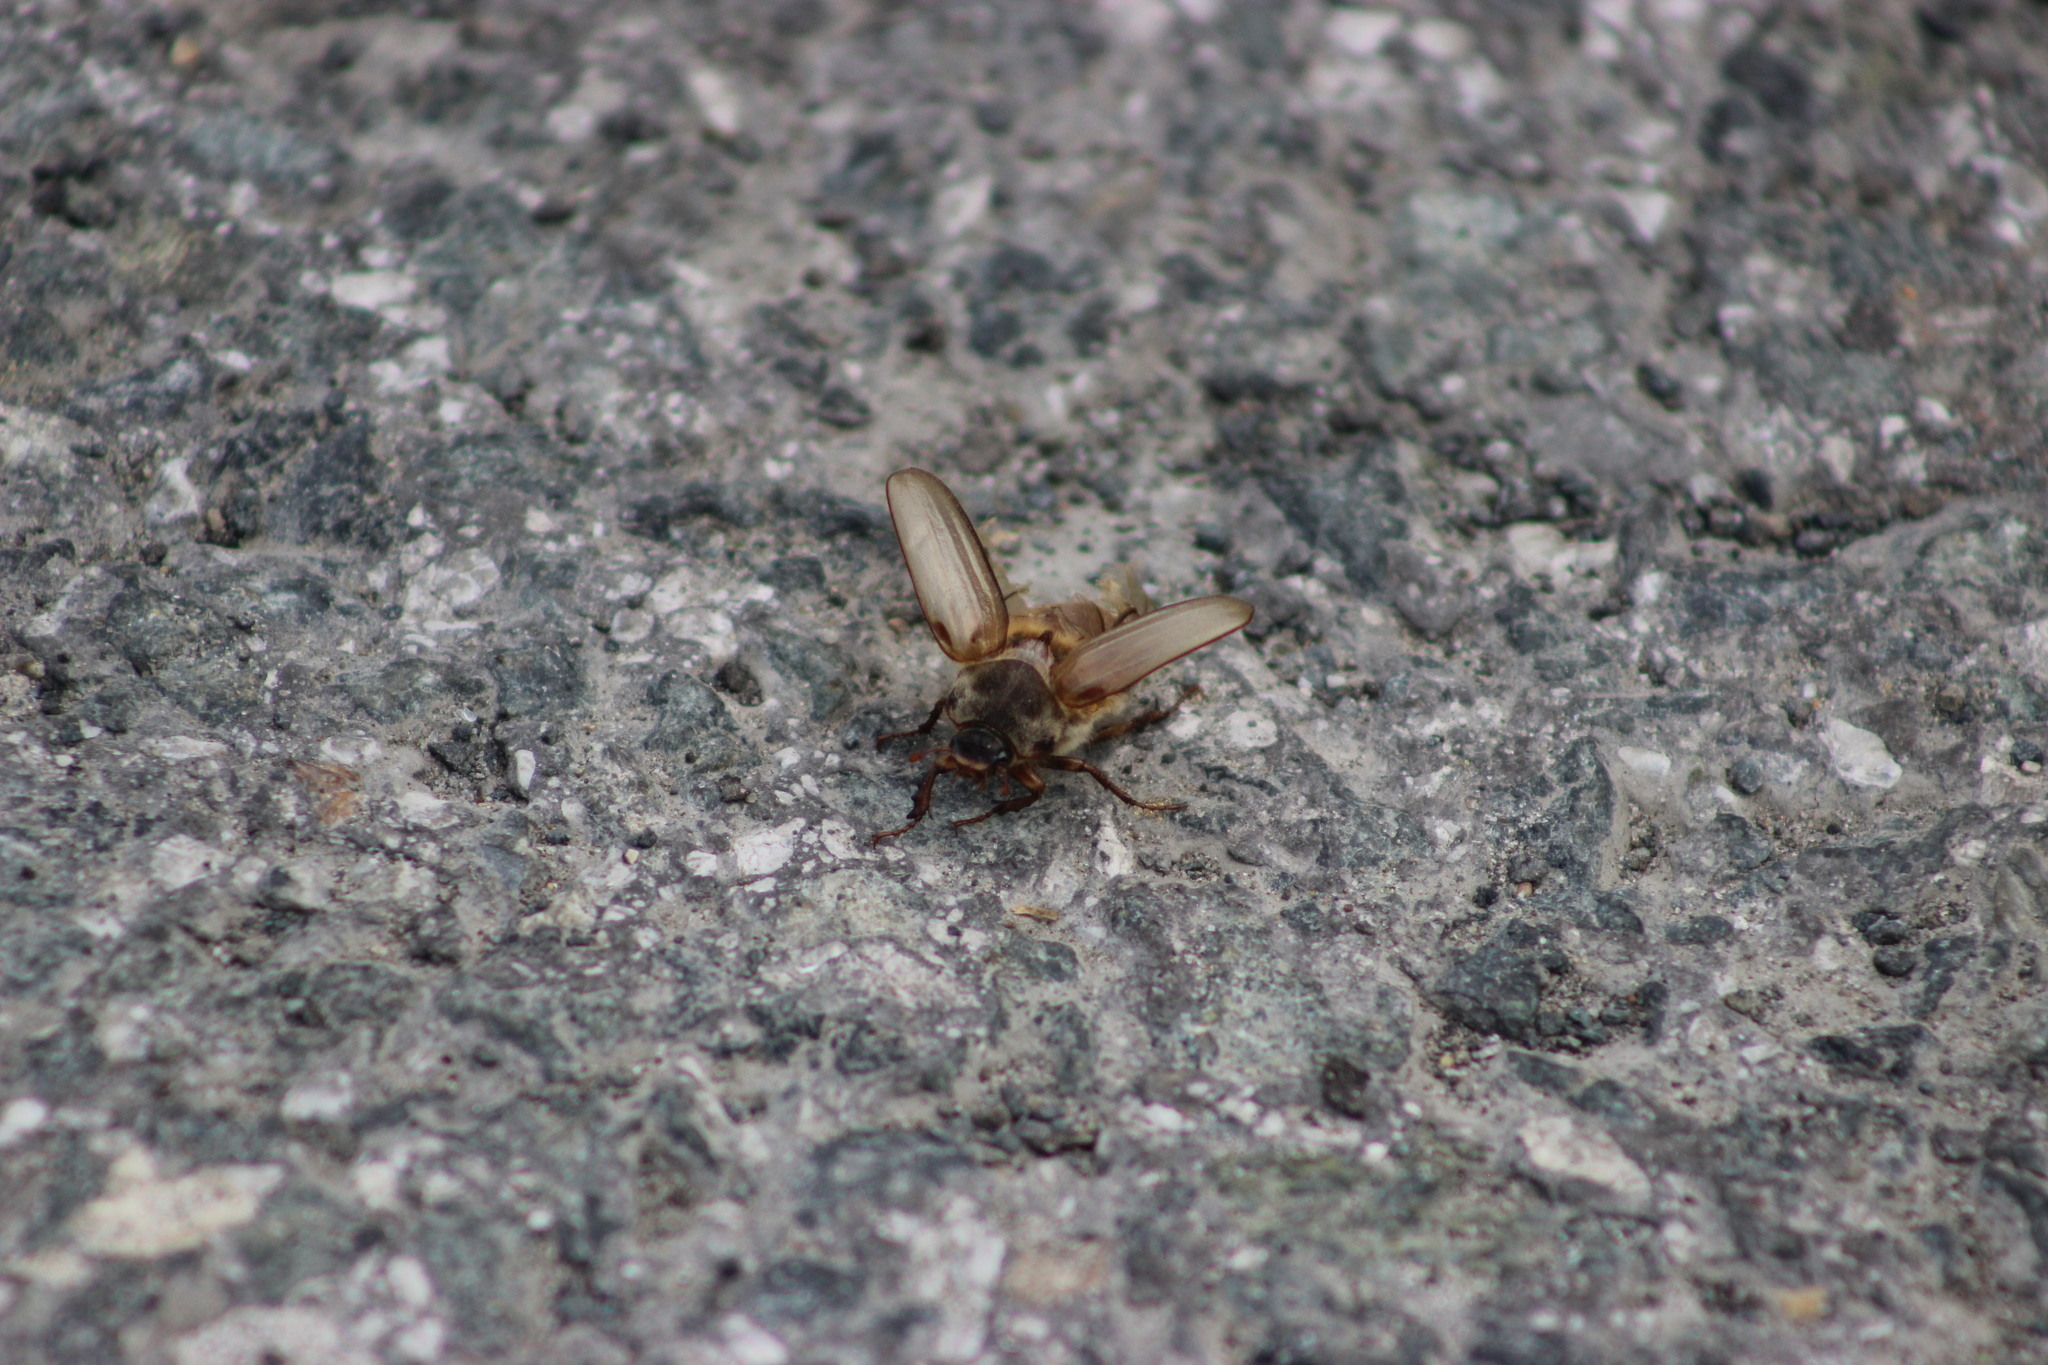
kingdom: Animalia
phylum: Arthropoda
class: Insecta
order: Coleoptera
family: Scarabaeidae
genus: Amphimallon
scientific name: Amphimallon solstitiale
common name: Summer chafer
